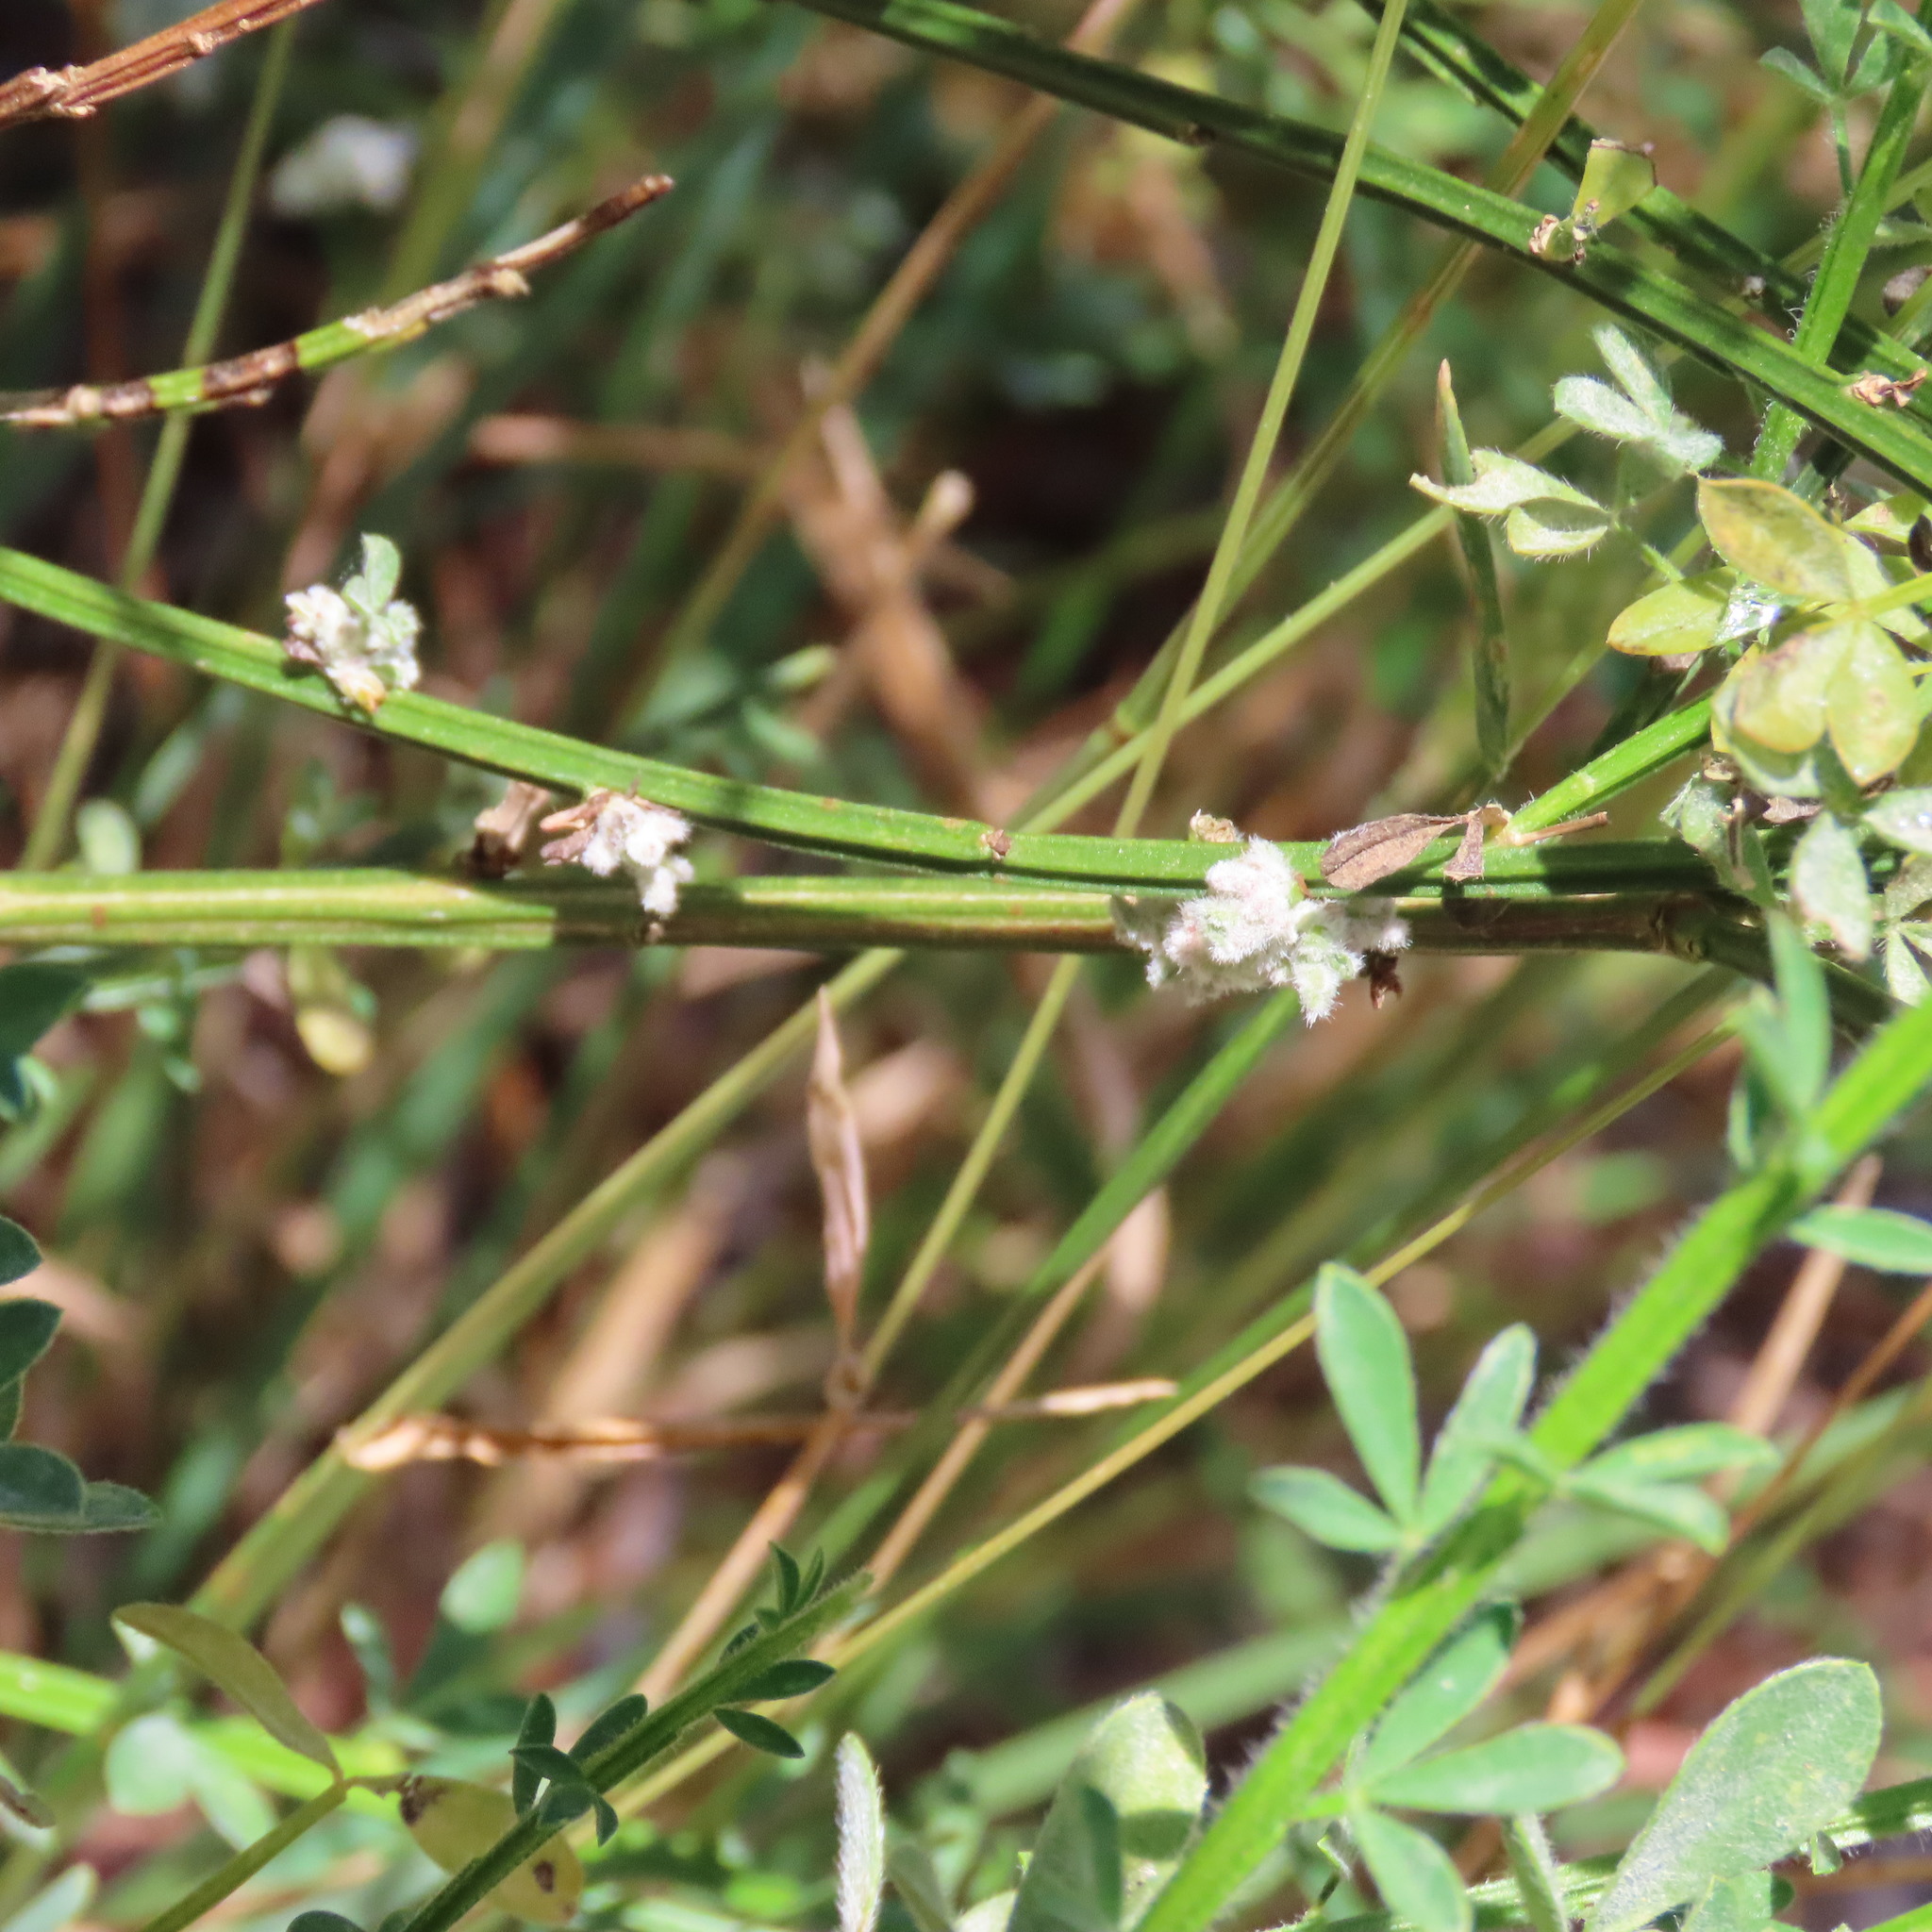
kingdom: Animalia
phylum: Arthropoda
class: Arachnida
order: Trombidiformes
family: Eriophyidae
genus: Aceria
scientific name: Aceria genistae
